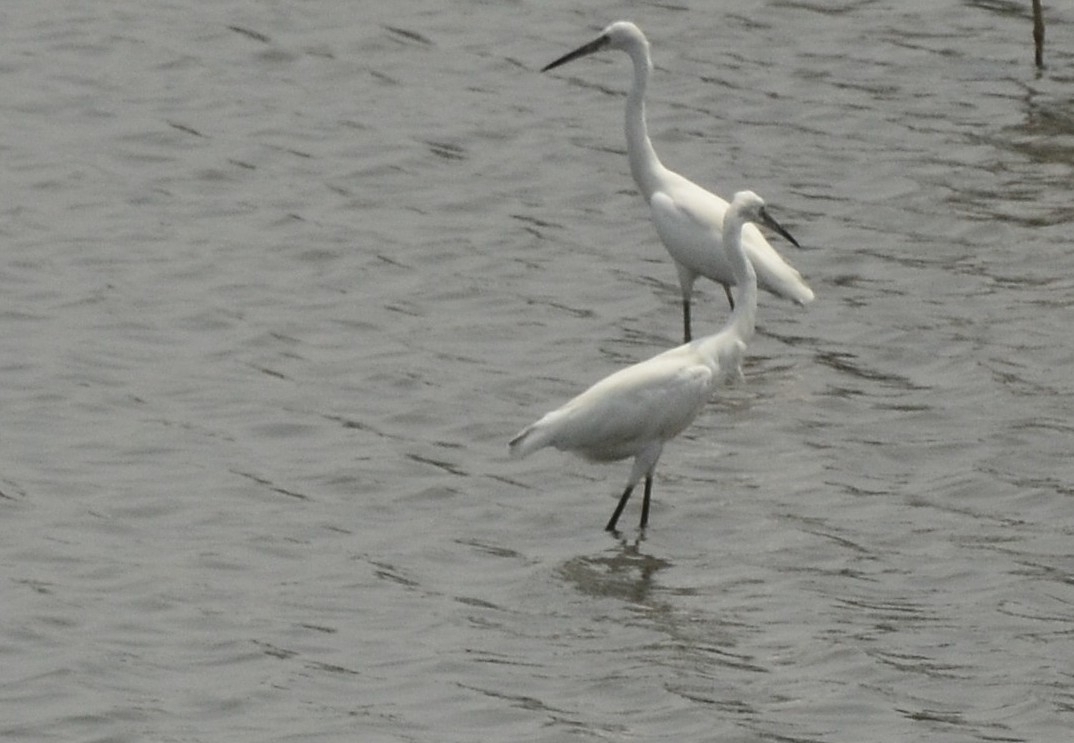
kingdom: Animalia
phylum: Chordata
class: Aves
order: Pelecaniformes
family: Ardeidae
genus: Egretta
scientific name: Egretta garzetta
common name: Little egret
